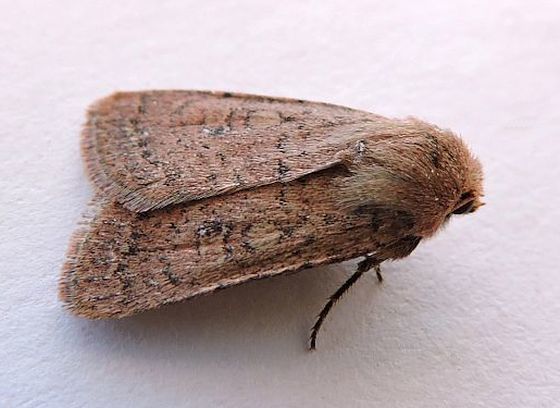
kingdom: Animalia
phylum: Arthropoda
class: Insecta
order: Lepidoptera
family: Noctuidae
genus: Homorthodes
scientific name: Homorthodes fractura
